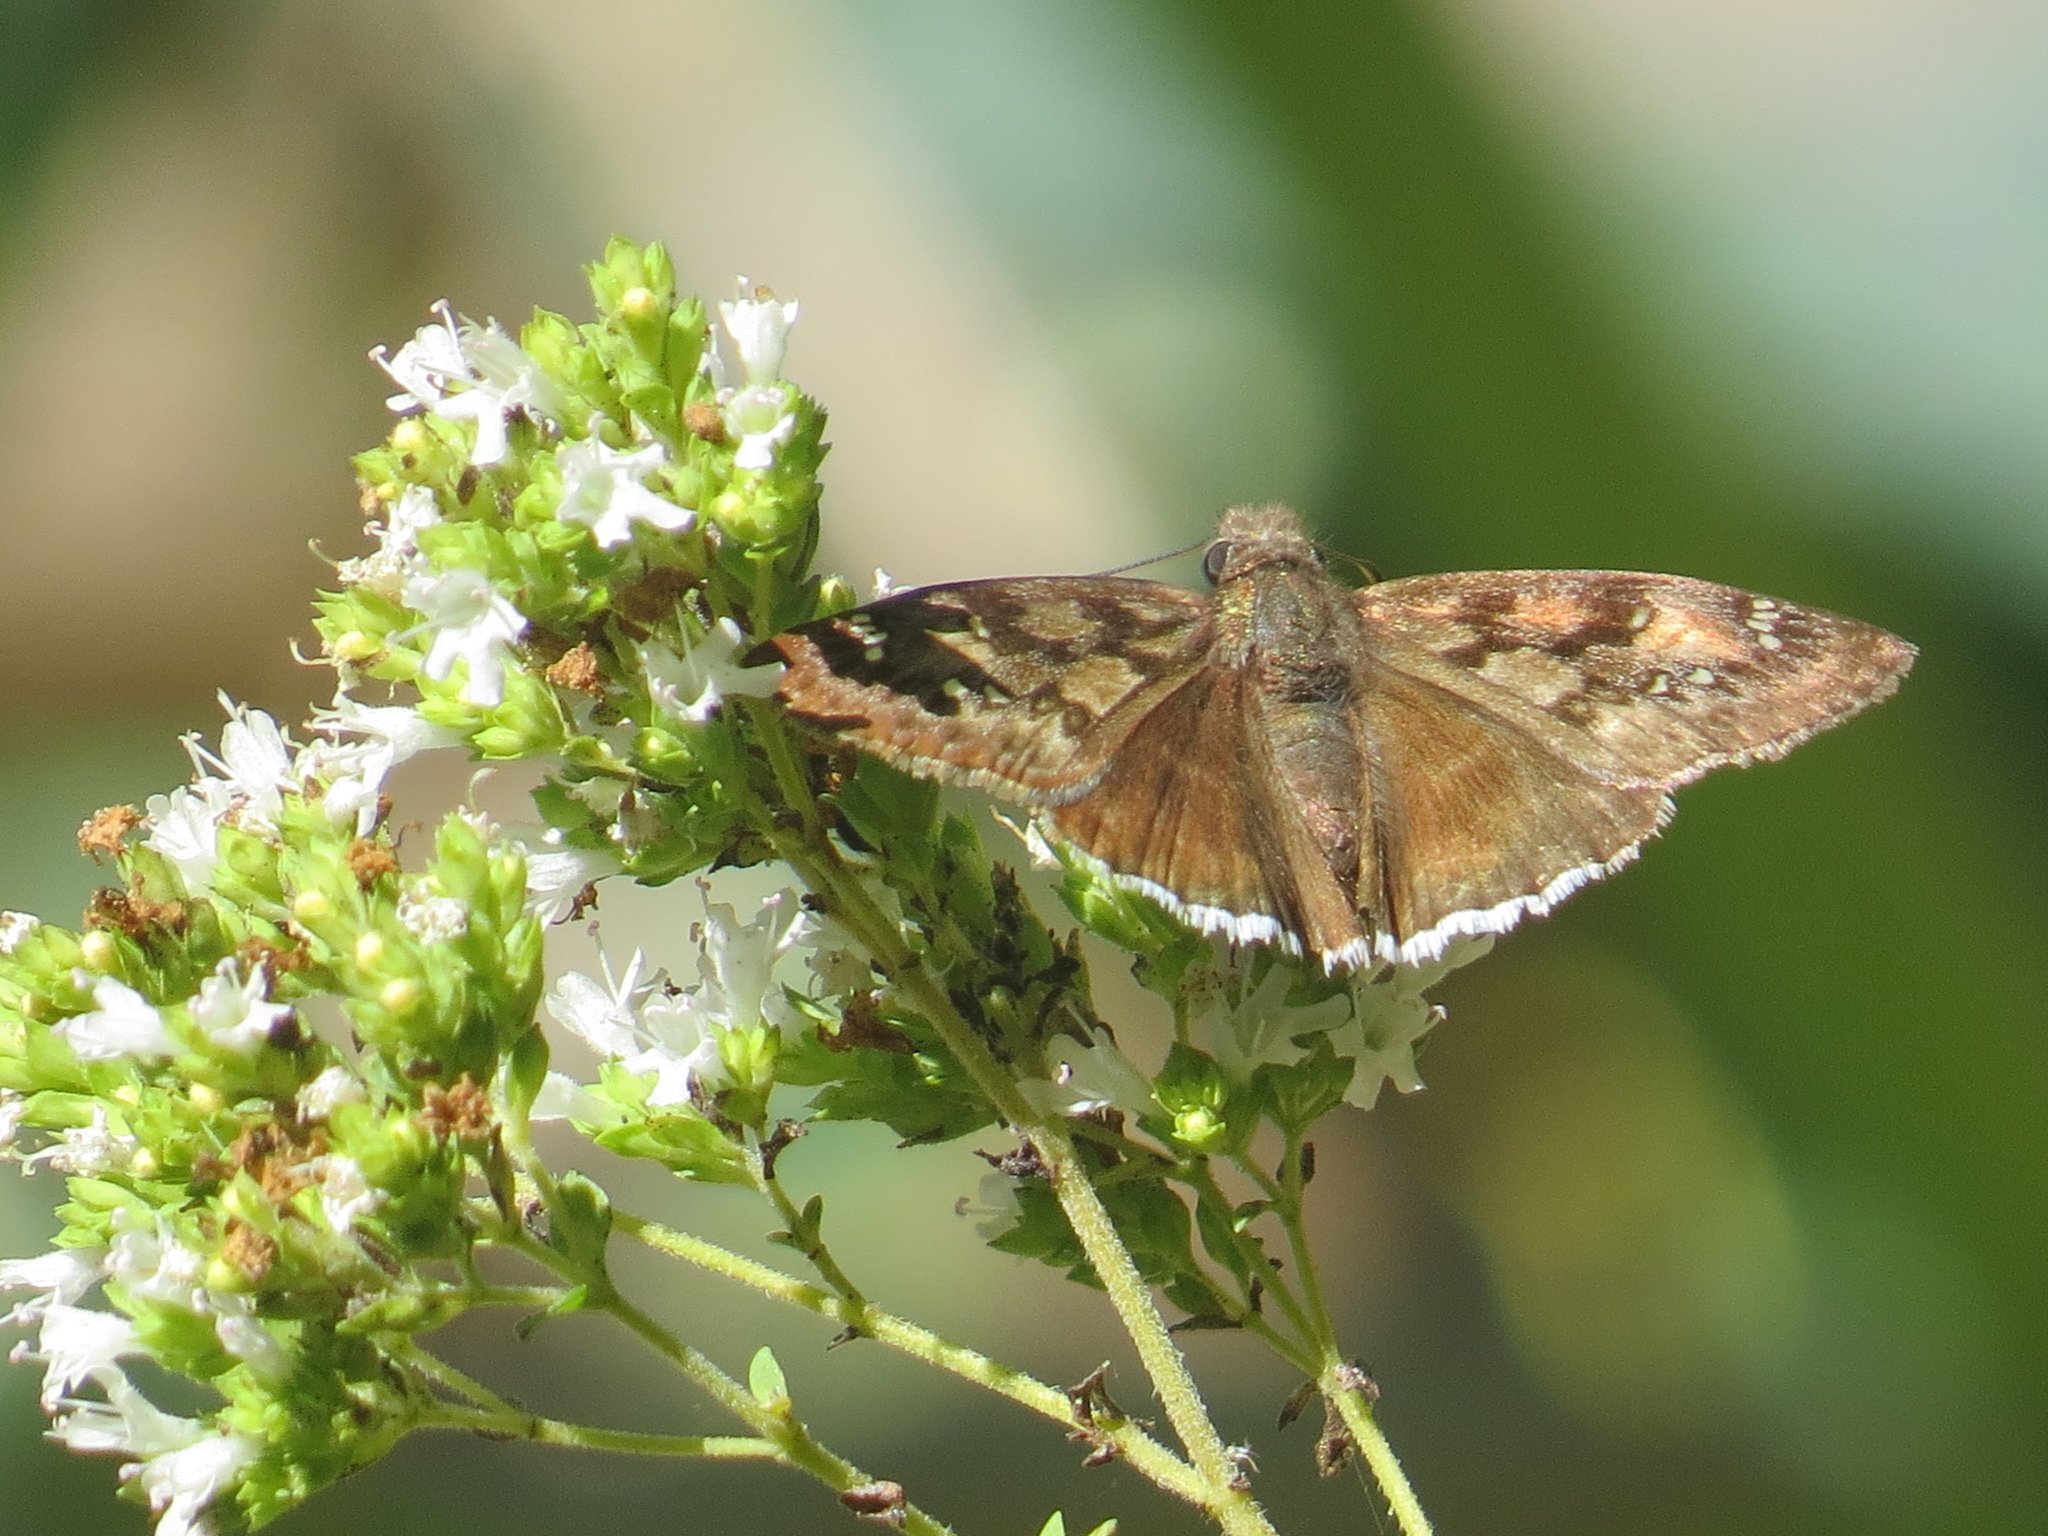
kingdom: Animalia
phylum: Arthropoda
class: Insecta
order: Lepidoptera
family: Hesperiidae
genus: Erynnis
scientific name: Erynnis tristis
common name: Mournful duskywing
